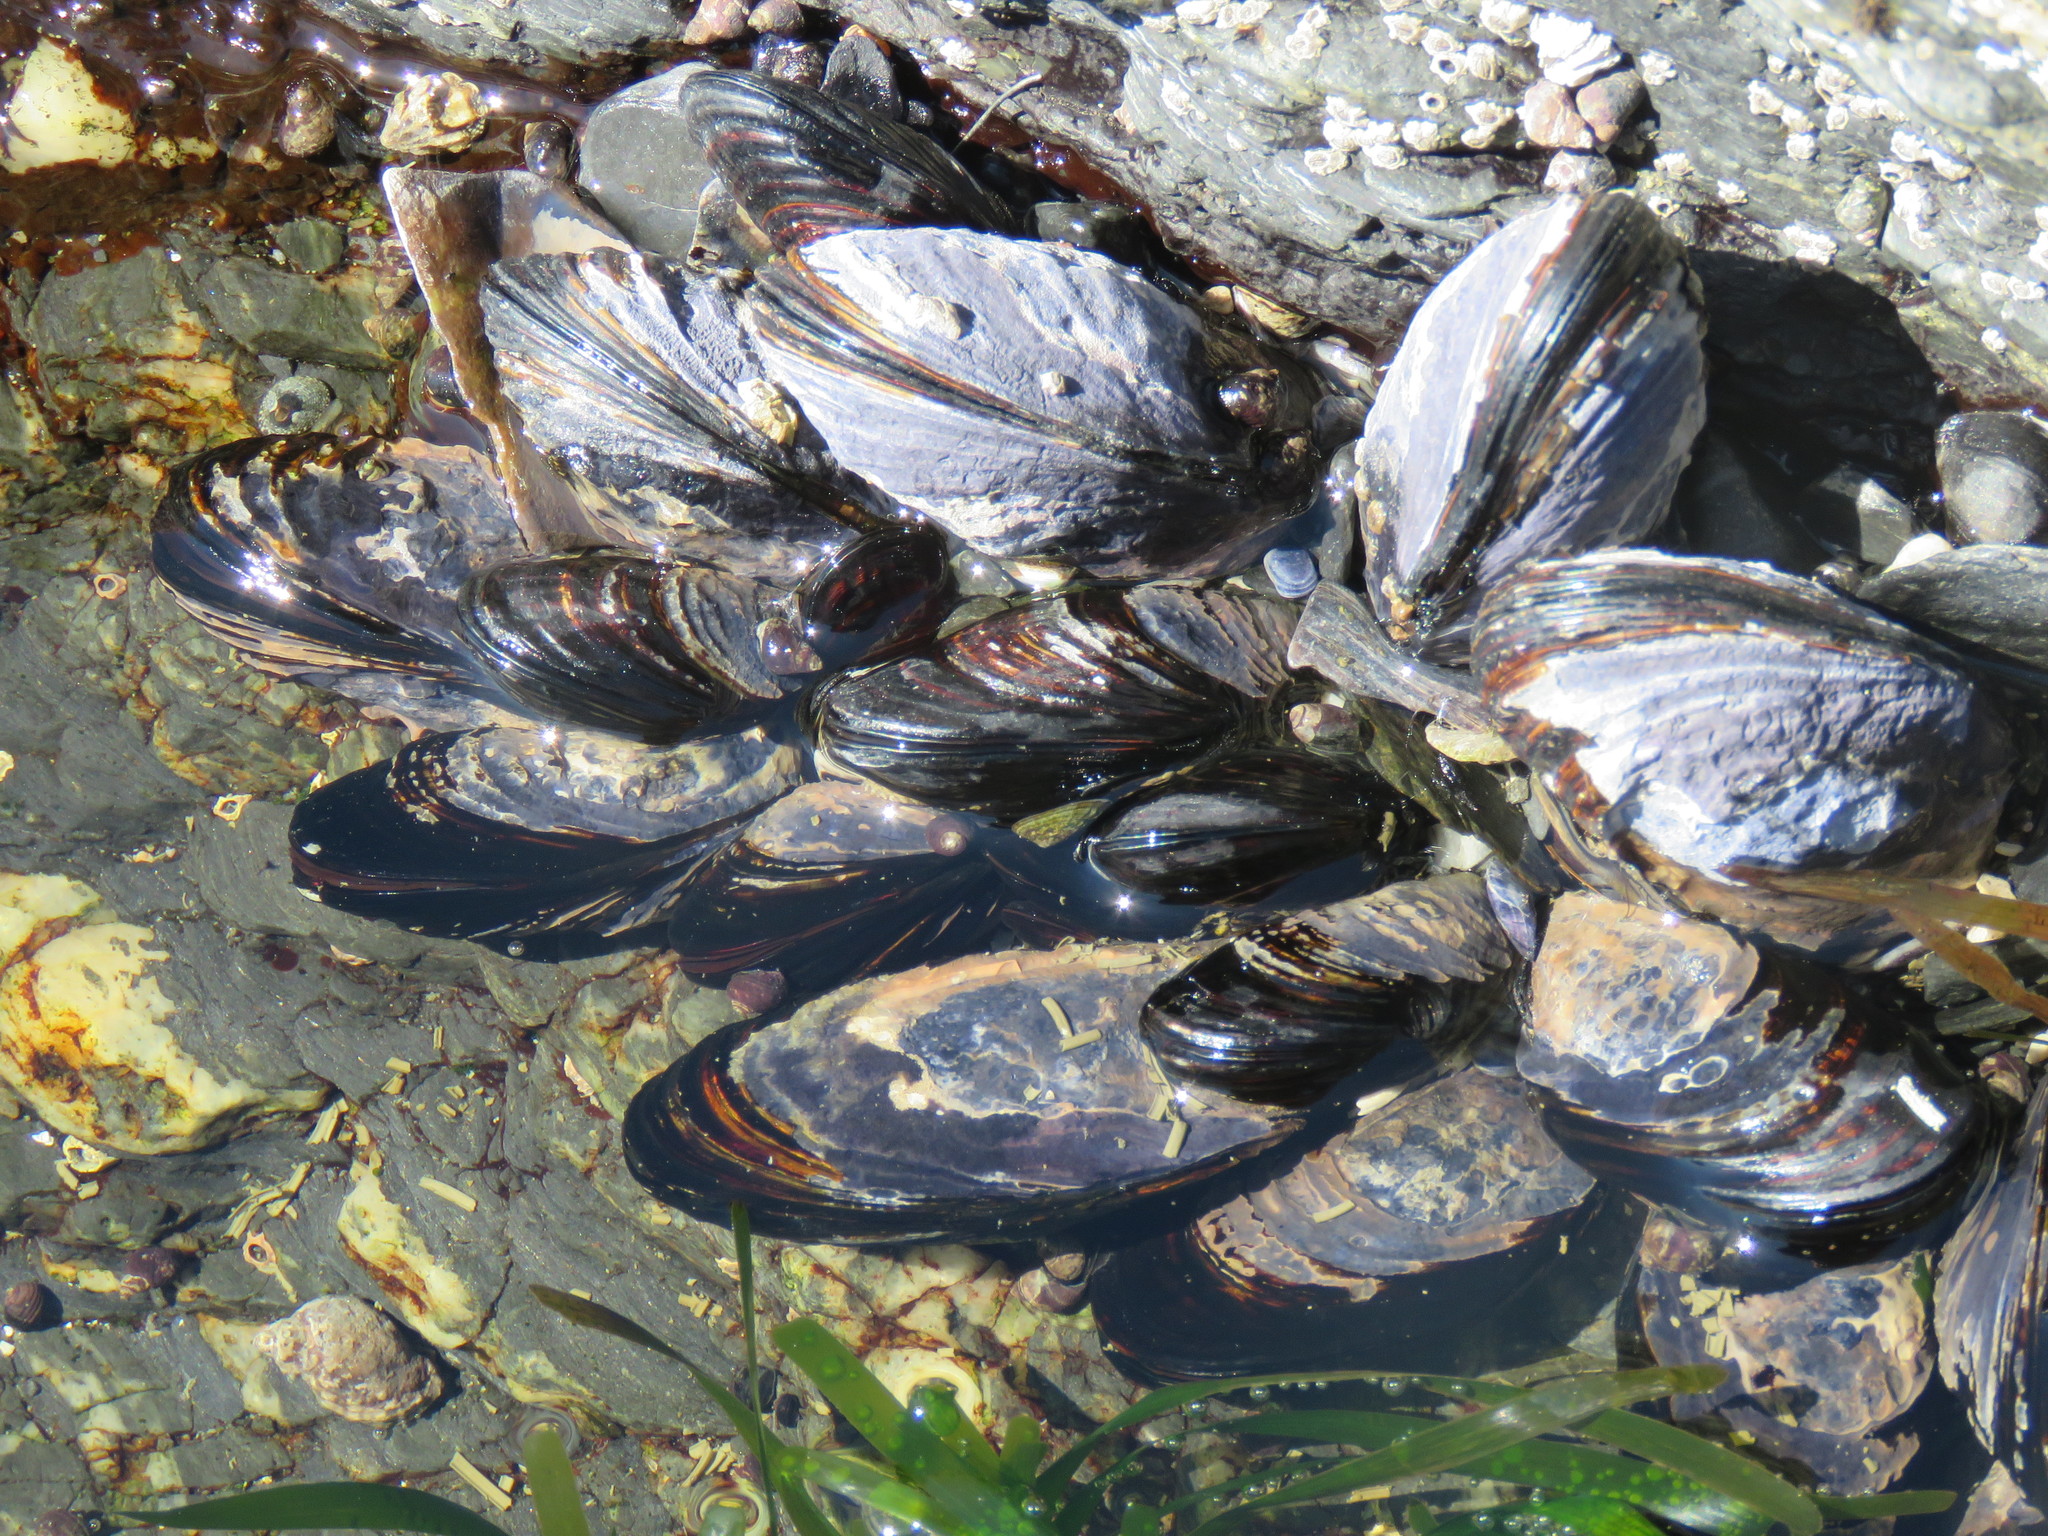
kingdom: Animalia
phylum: Mollusca
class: Bivalvia
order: Mytilida
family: Mytilidae
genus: Mytilus
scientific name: Mytilus californianus
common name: California mussel
